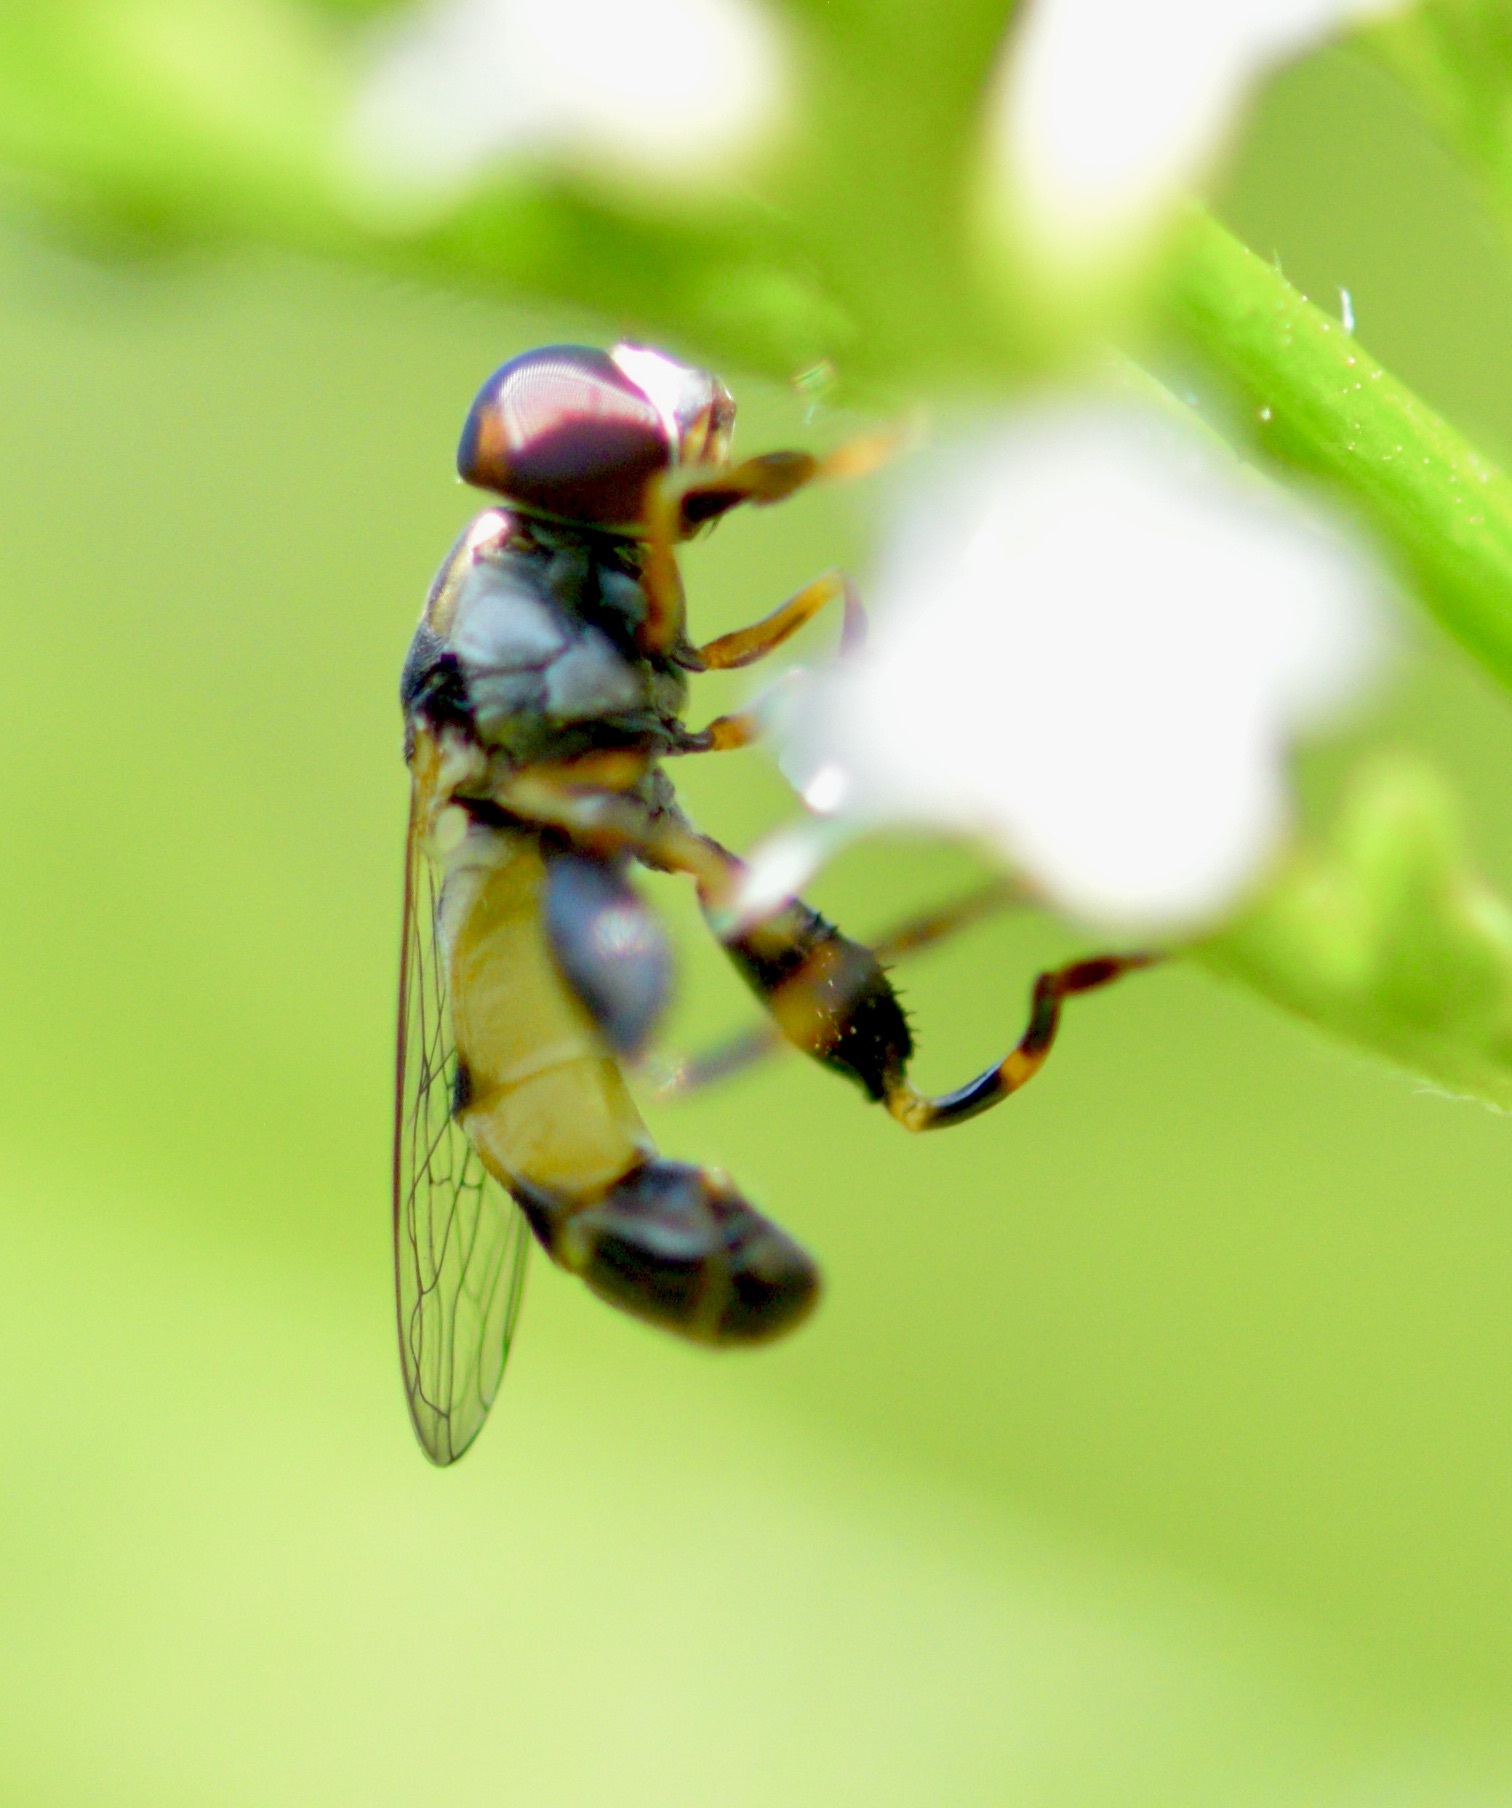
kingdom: Animalia
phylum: Arthropoda
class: Insecta
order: Diptera
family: Syrphidae
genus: Syritta
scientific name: Syritta pipiens
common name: Hover fly
